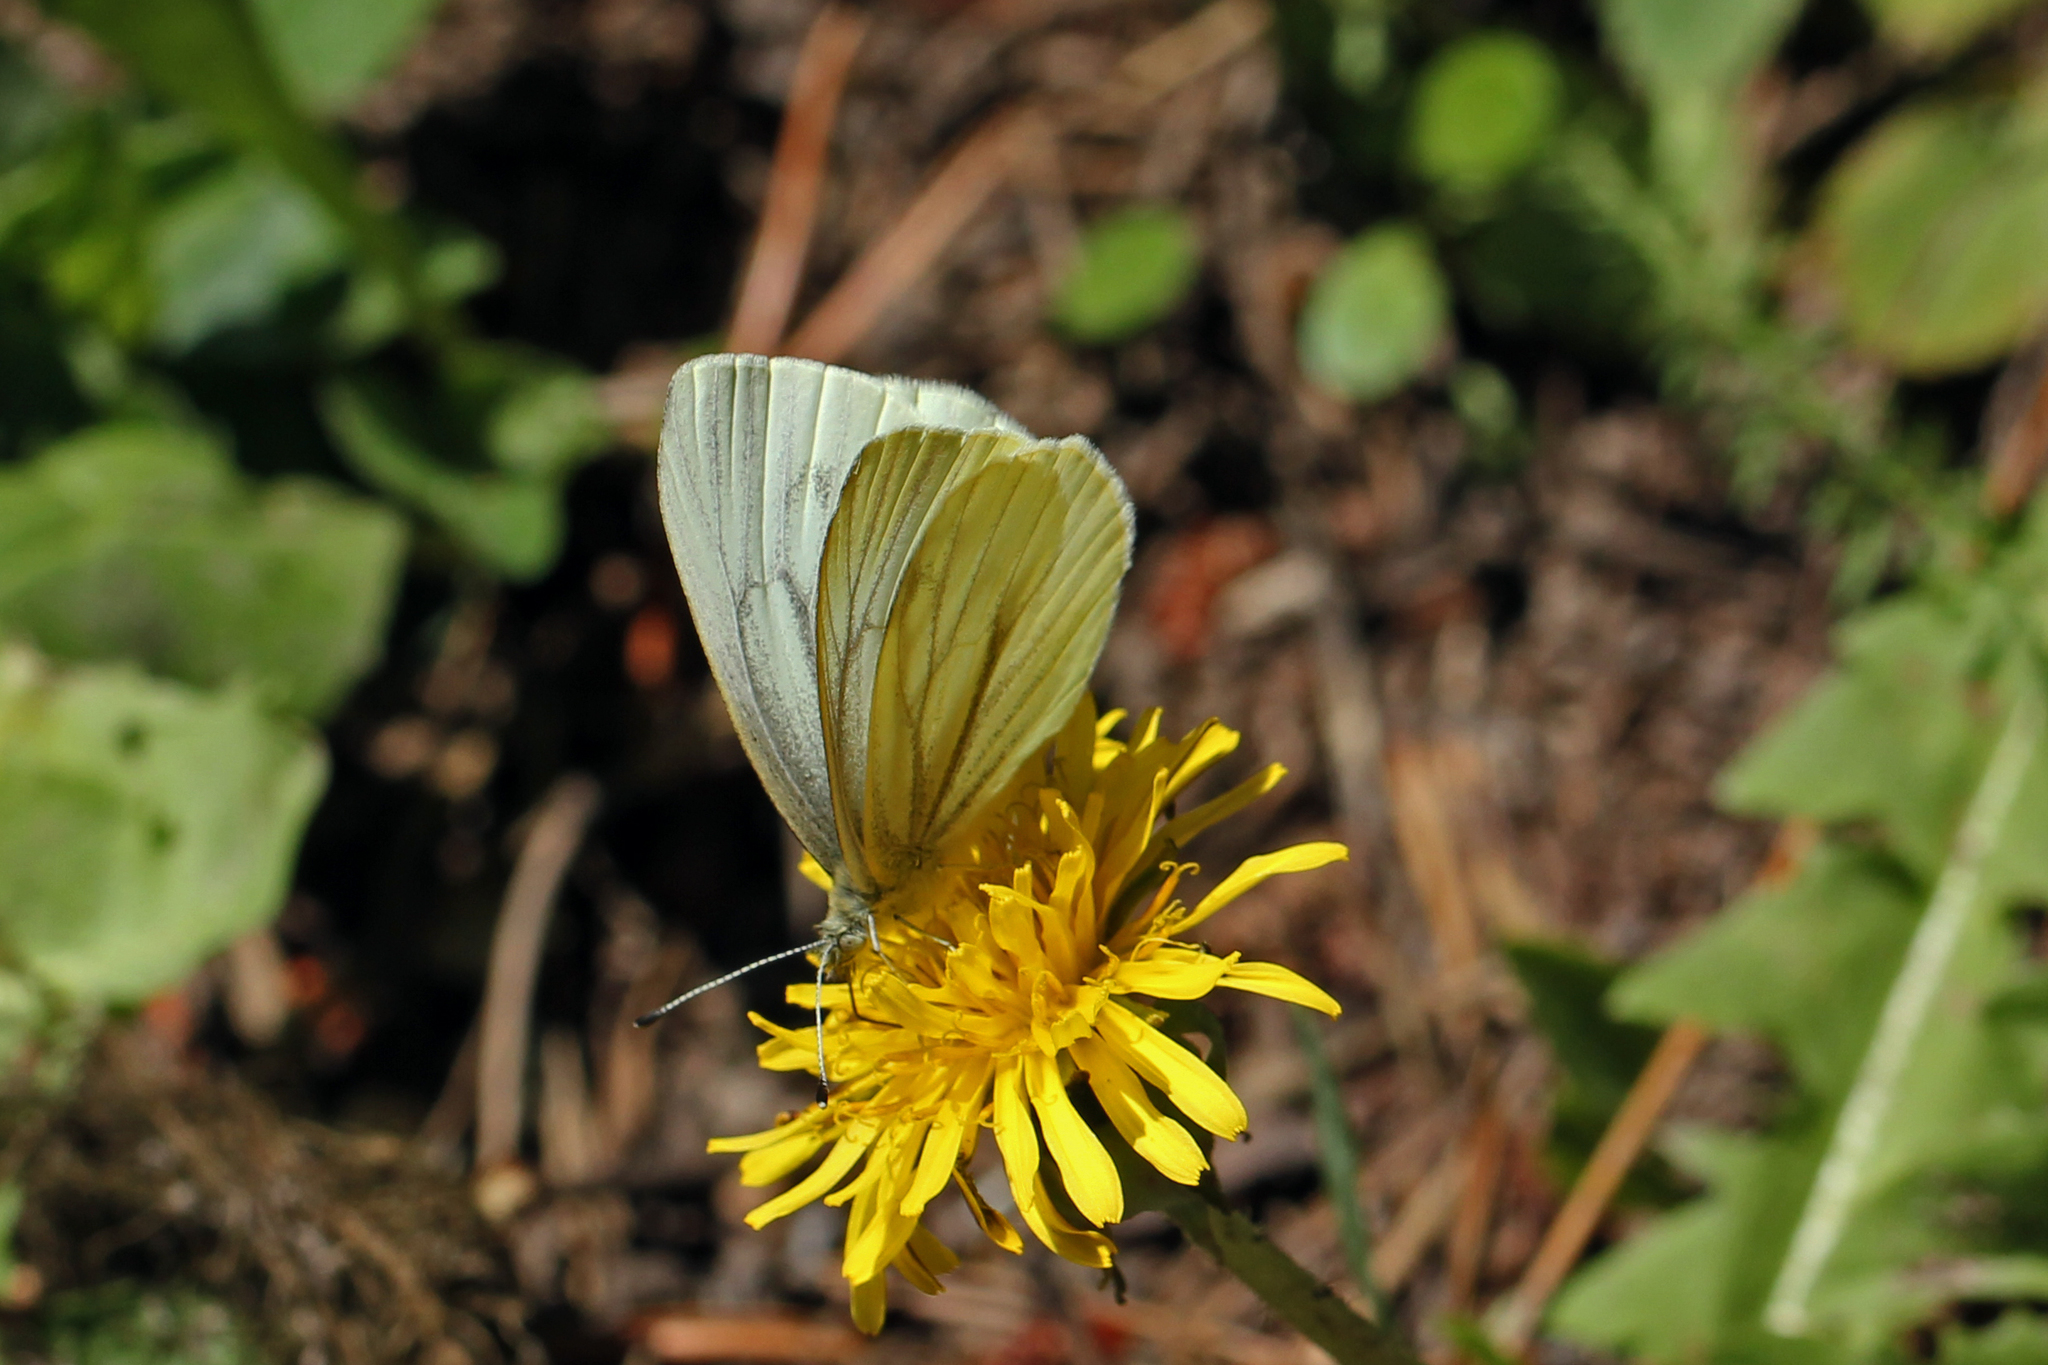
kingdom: Animalia
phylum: Arthropoda
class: Insecta
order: Lepidoptera
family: Pieridae
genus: Pieris
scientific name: Pieris marginalis
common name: Margined white
